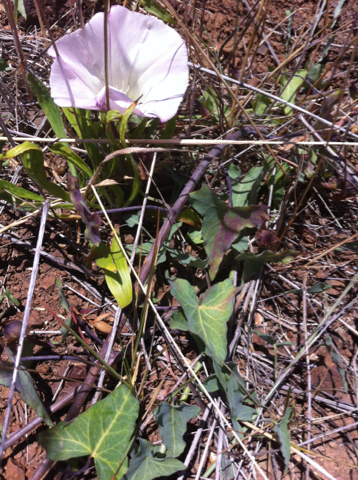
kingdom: Plantae
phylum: Tracheophyta
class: Magnoliopsida
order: Solanales
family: Convolvulaceae
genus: Calystegia
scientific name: Calystegia purpurata
